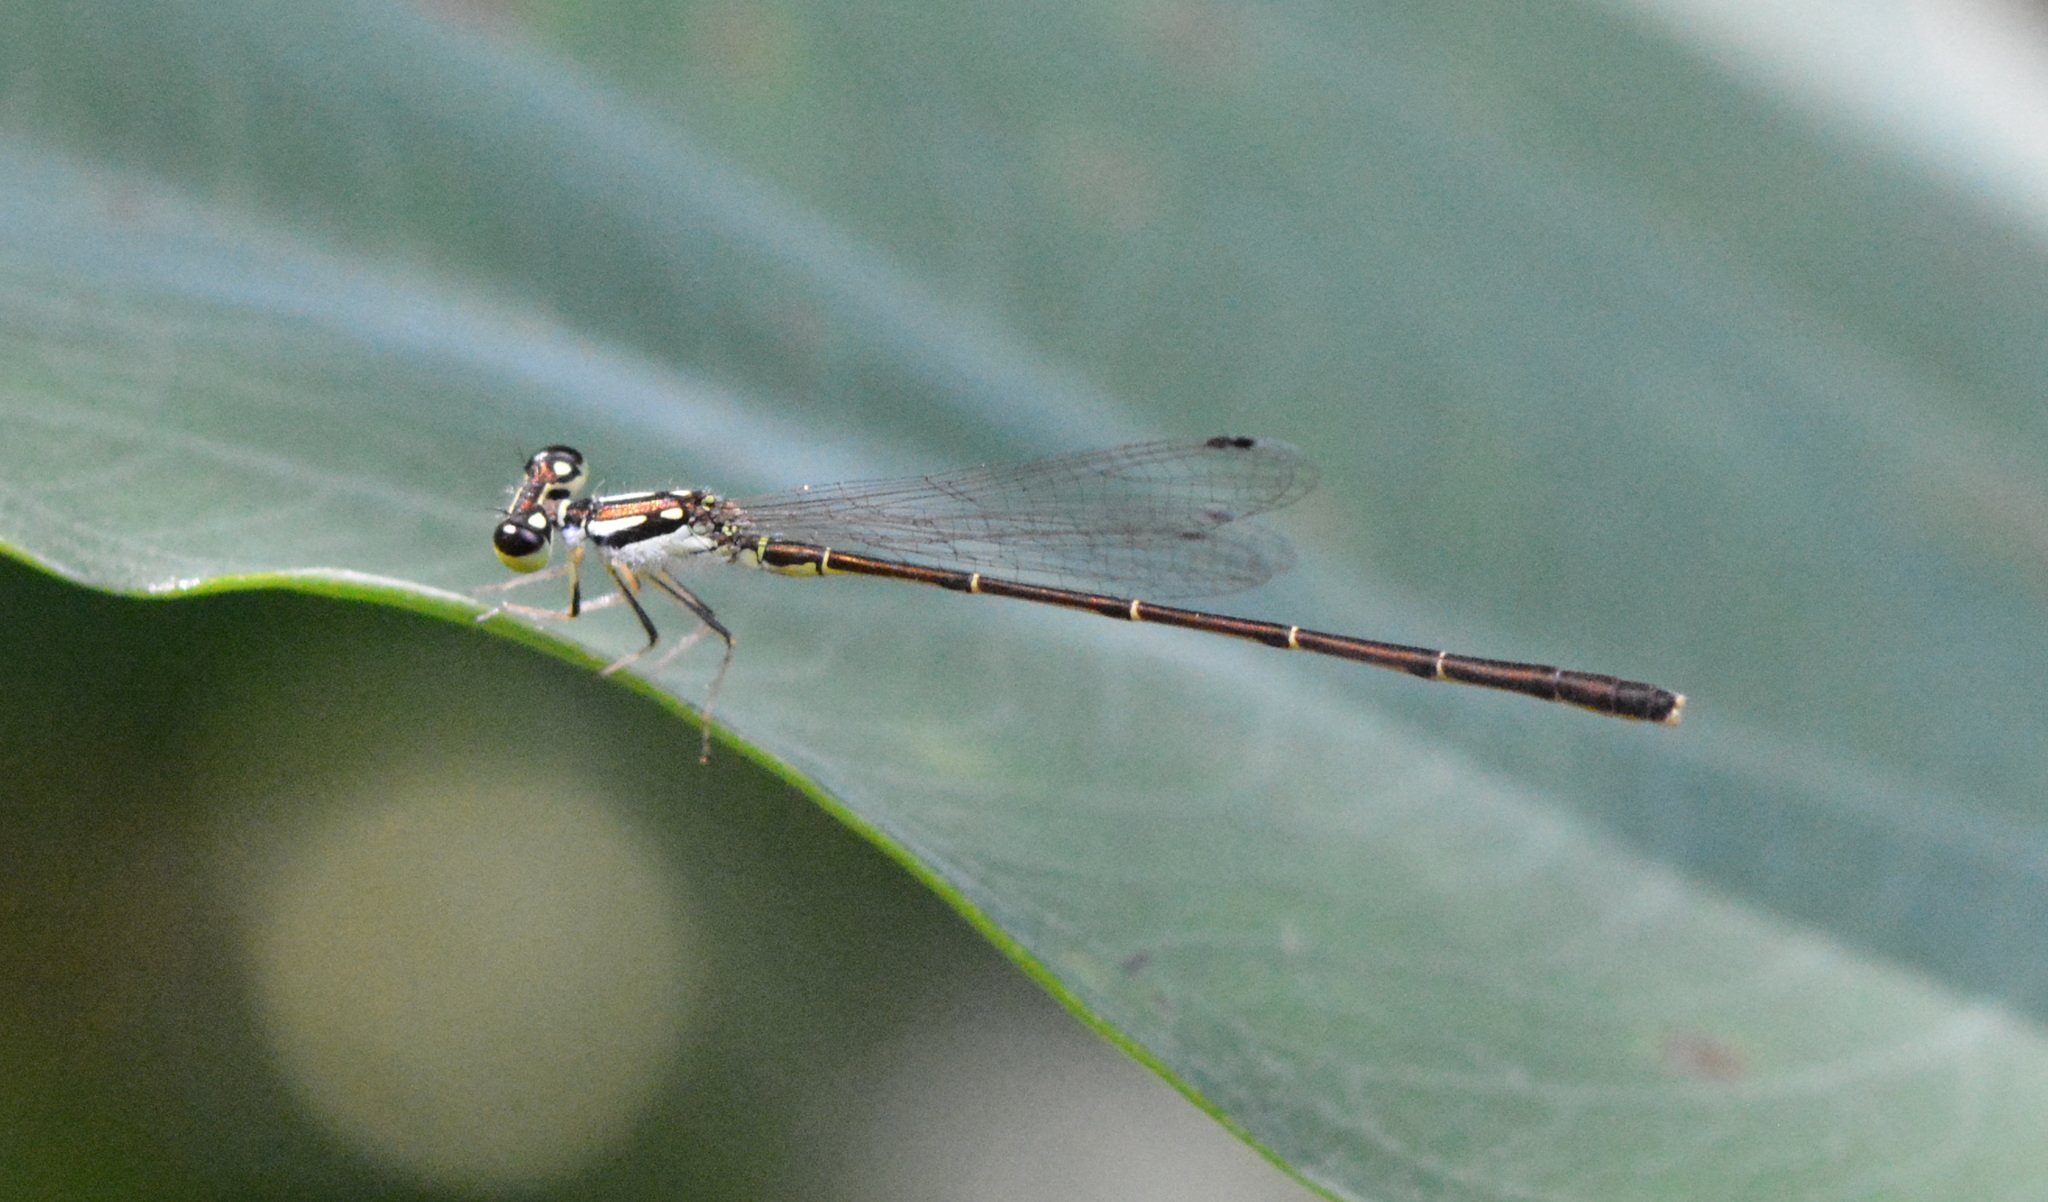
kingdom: Animalia
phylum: Arthropoda
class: Insecta
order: Odonata
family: Coenagrionidae
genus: Ischnura
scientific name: Ischnura posita
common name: Fragile forktail
